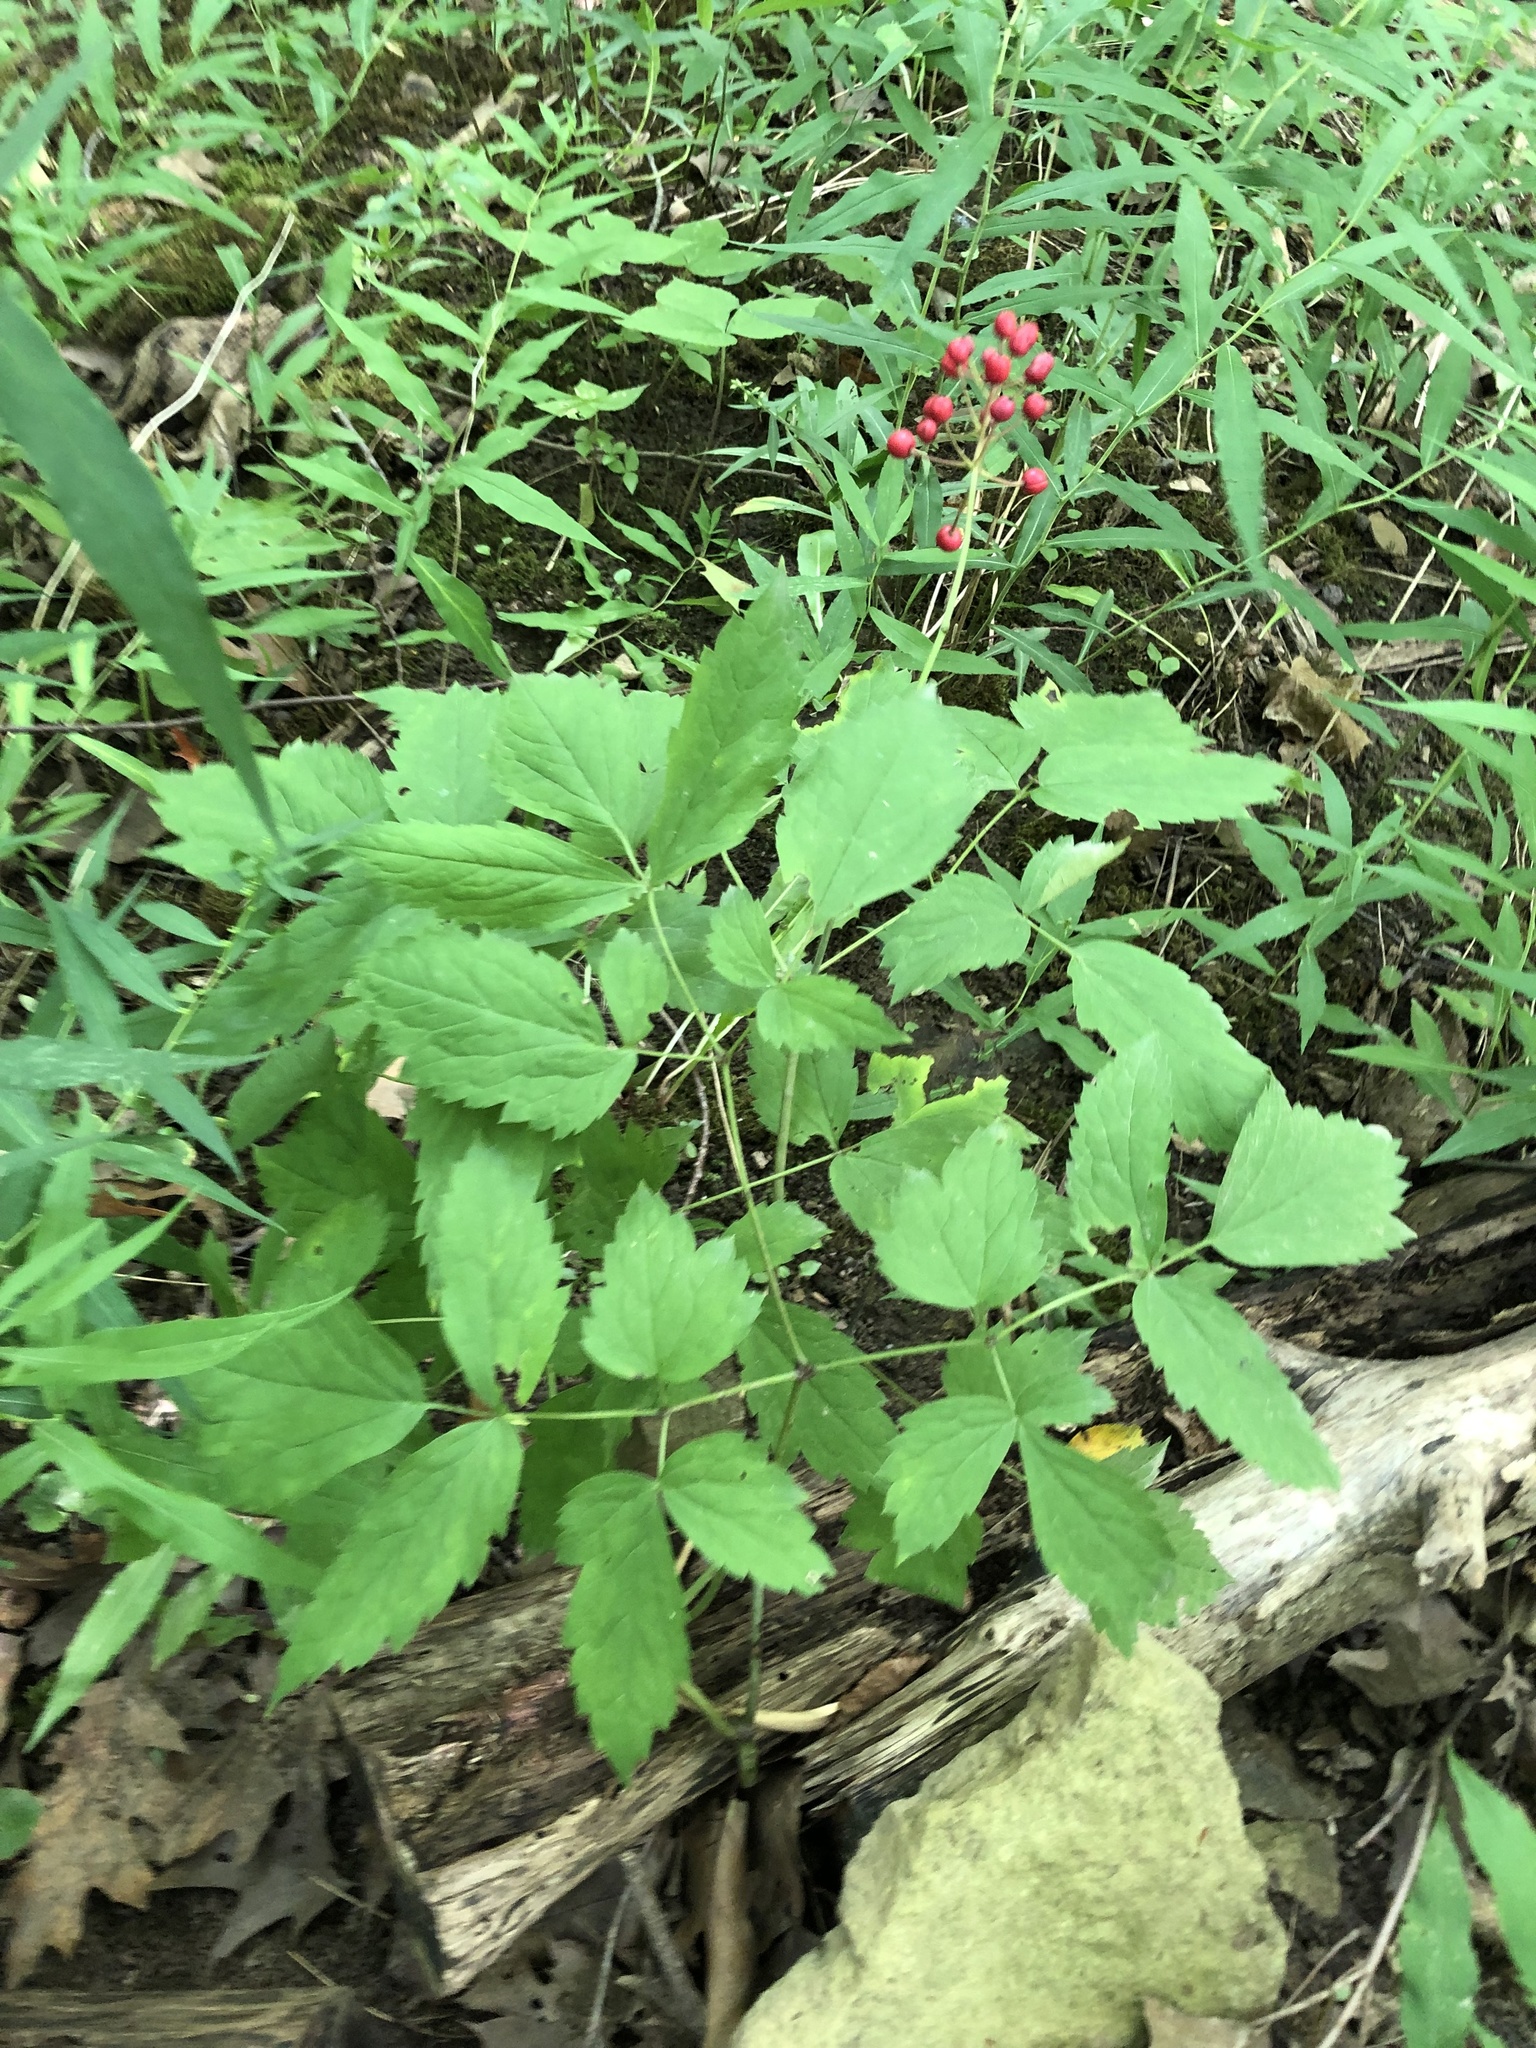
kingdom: Plantae
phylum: Tracheophyta
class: Magnoliopsida
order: Ranunculales
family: Ranunculaceae
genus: Actaea
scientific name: Actaea ludovici
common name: Ludovic's baneberry
